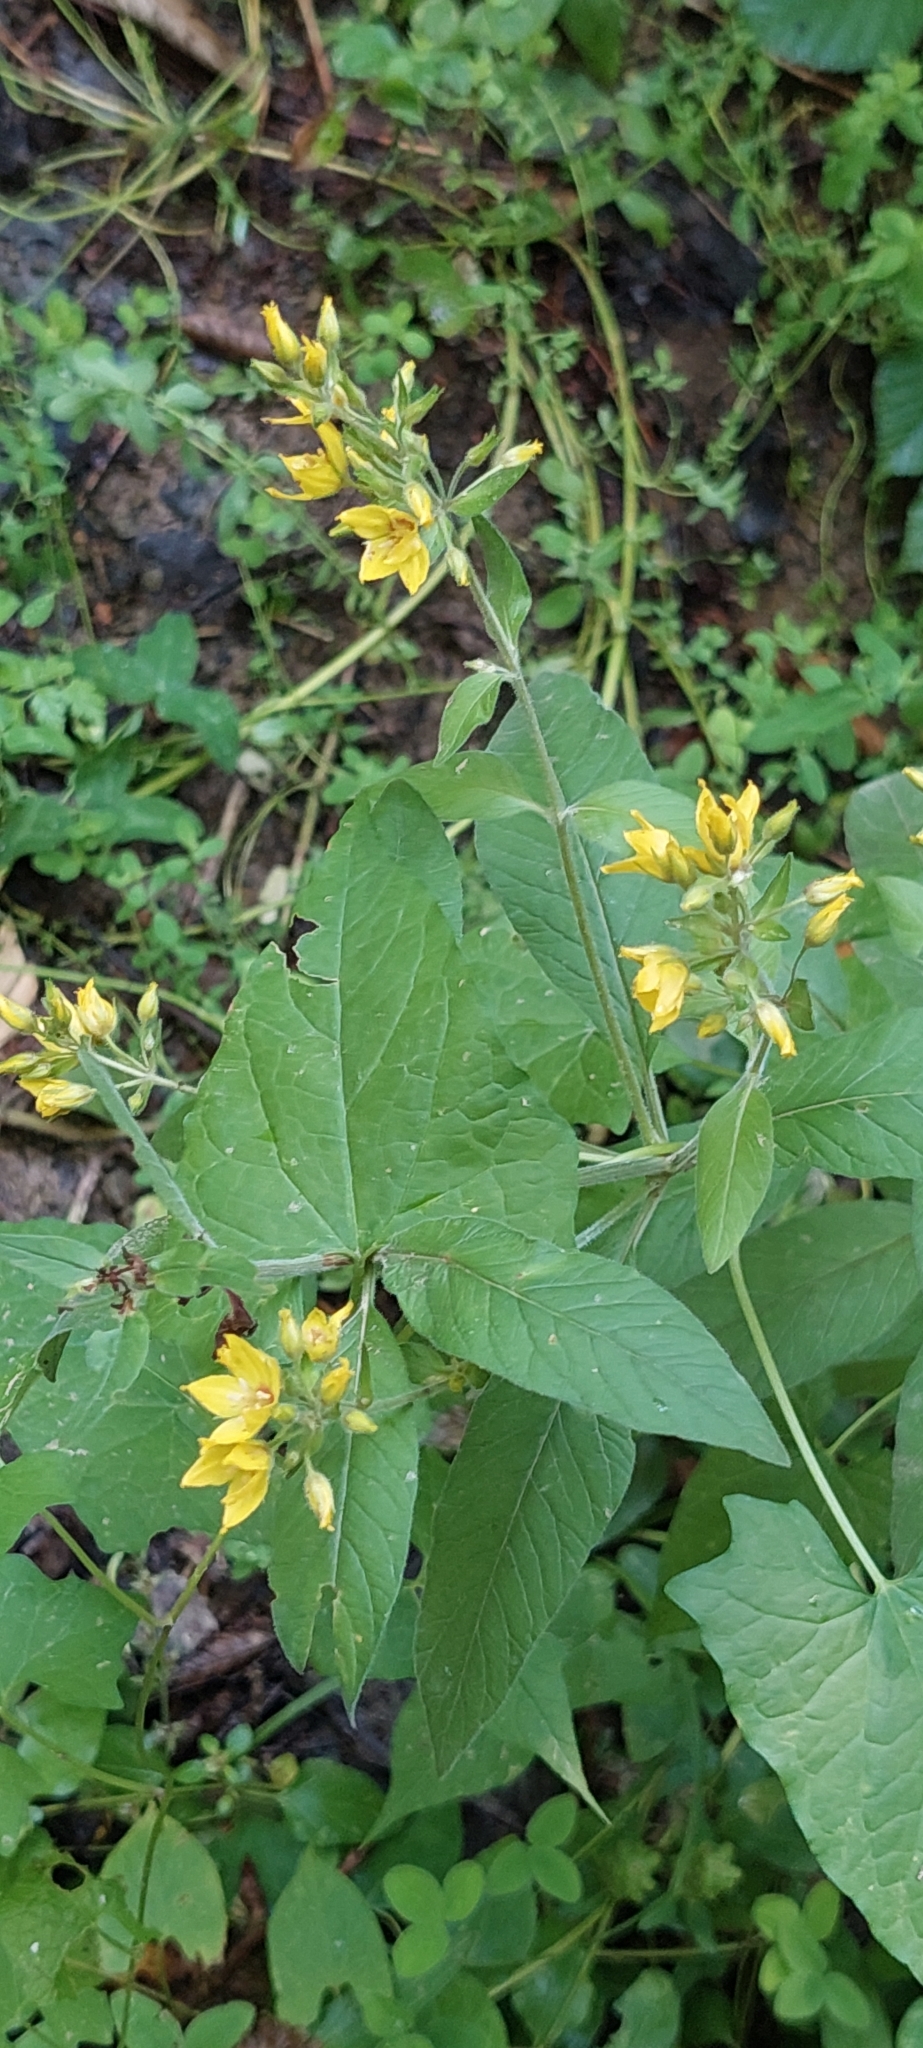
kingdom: Plantae
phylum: Tracheophyta
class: Magnoliopsida
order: Ericales
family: Primulaceae
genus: Lysimachia
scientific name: Lysimachia verticillaris
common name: Yellow loosestrife
